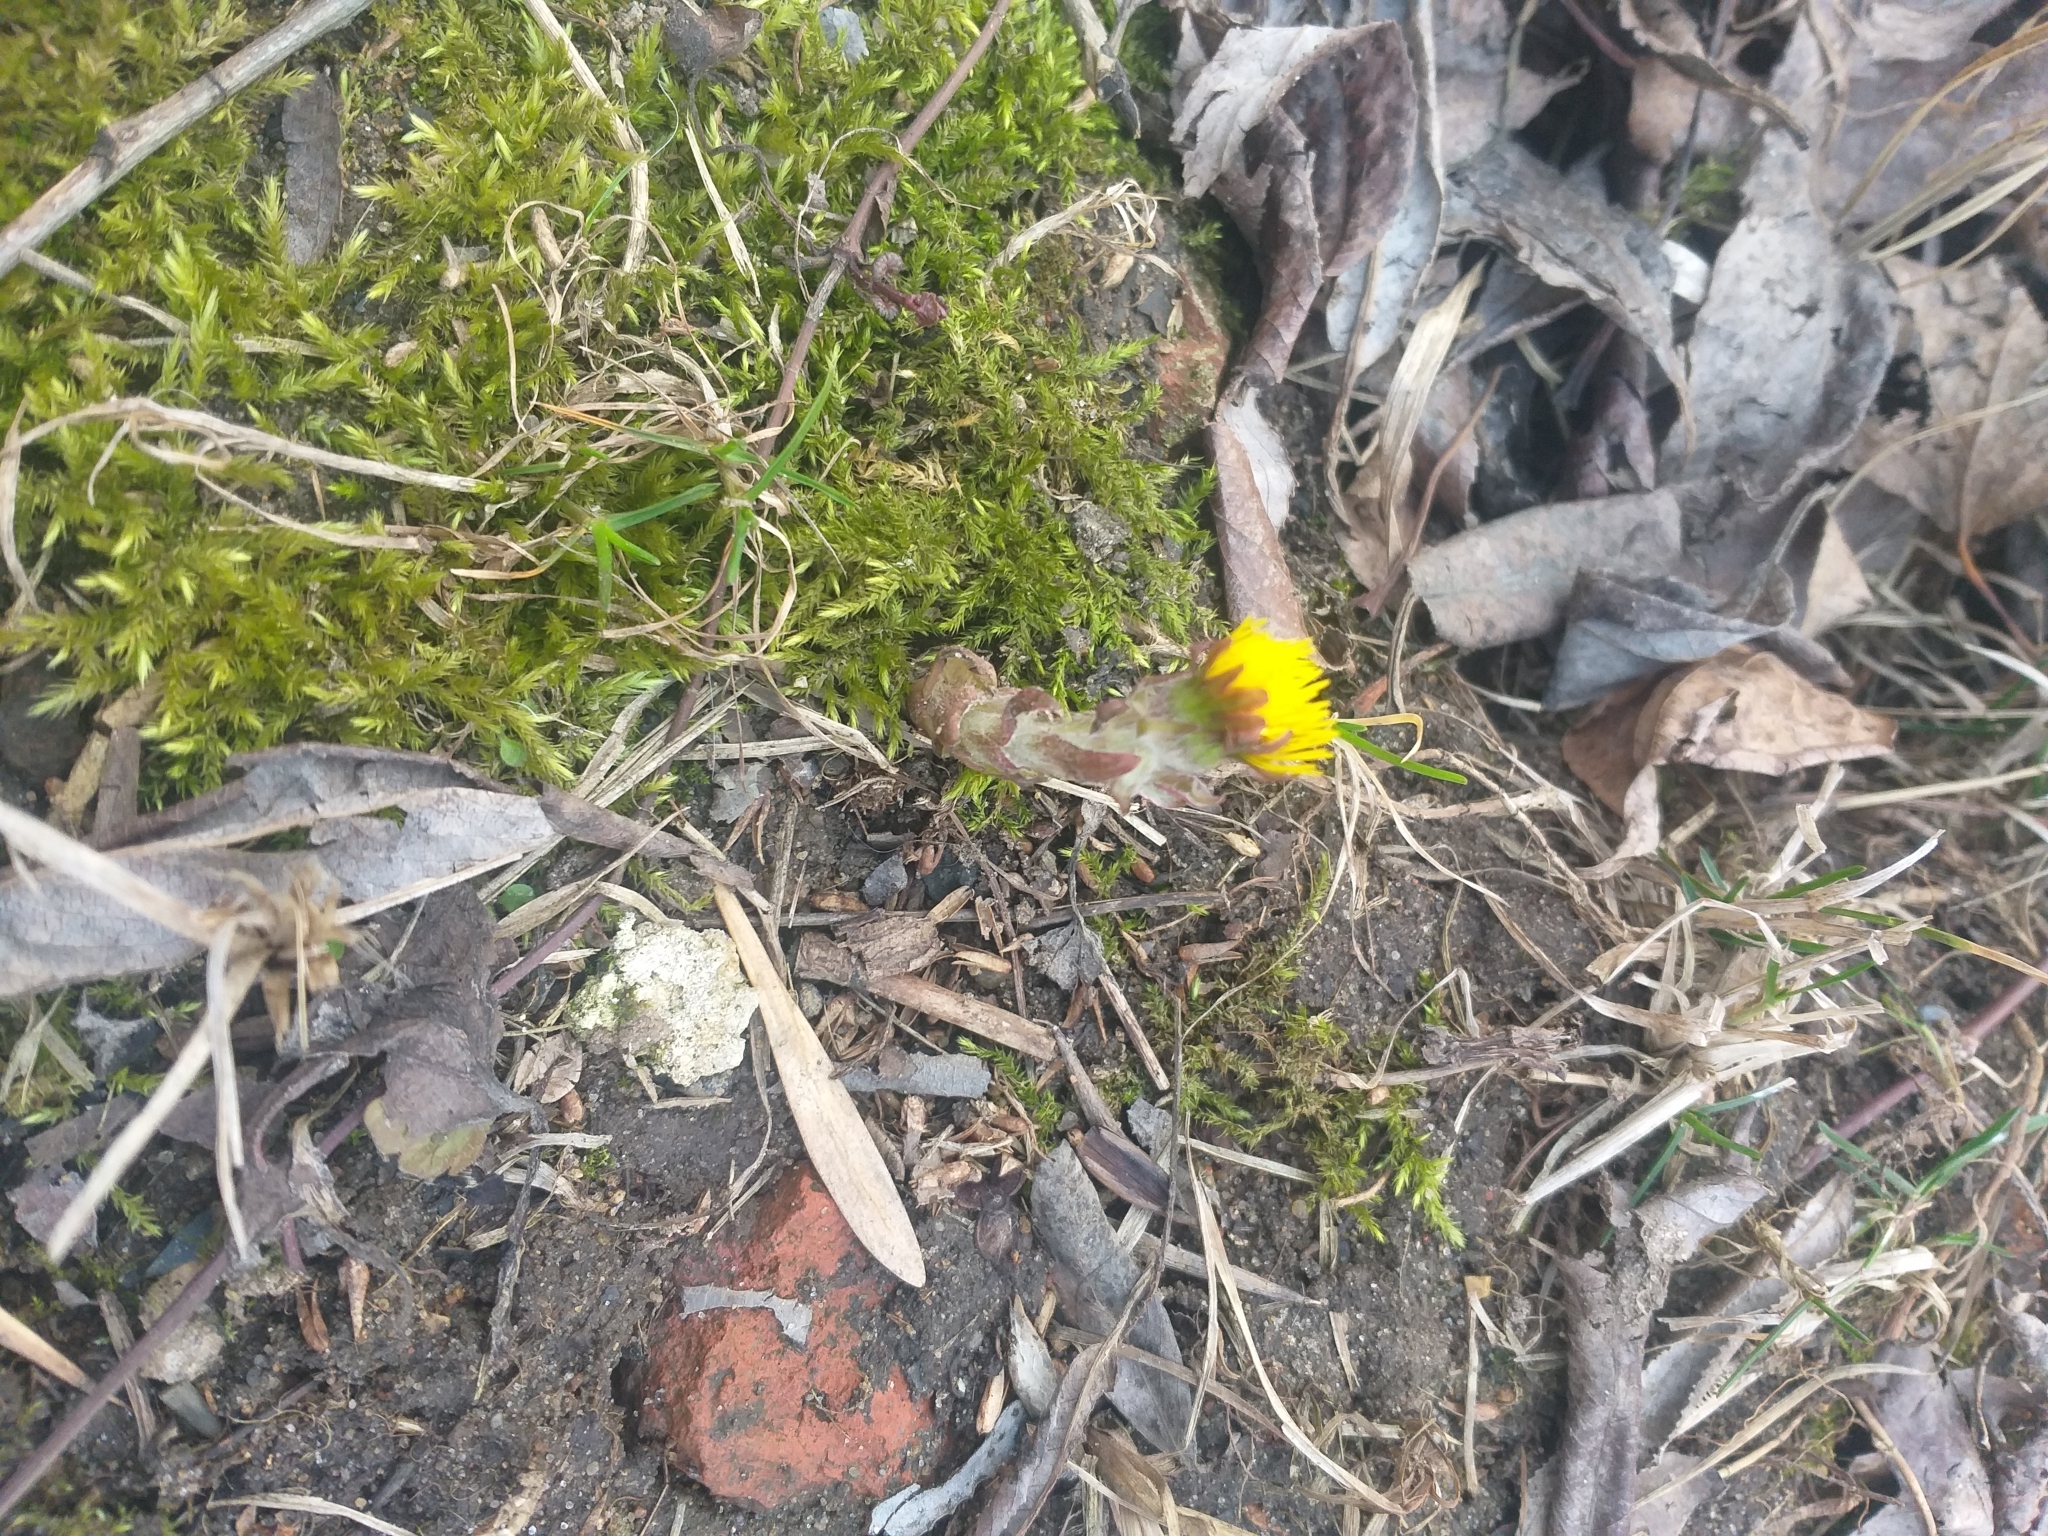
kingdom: Plantae
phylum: Tracheophyta
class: Magnoliopsida
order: Asterales
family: Asteraceae
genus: Tussilago
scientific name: Tussilago farfara
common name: Coltsfoot
